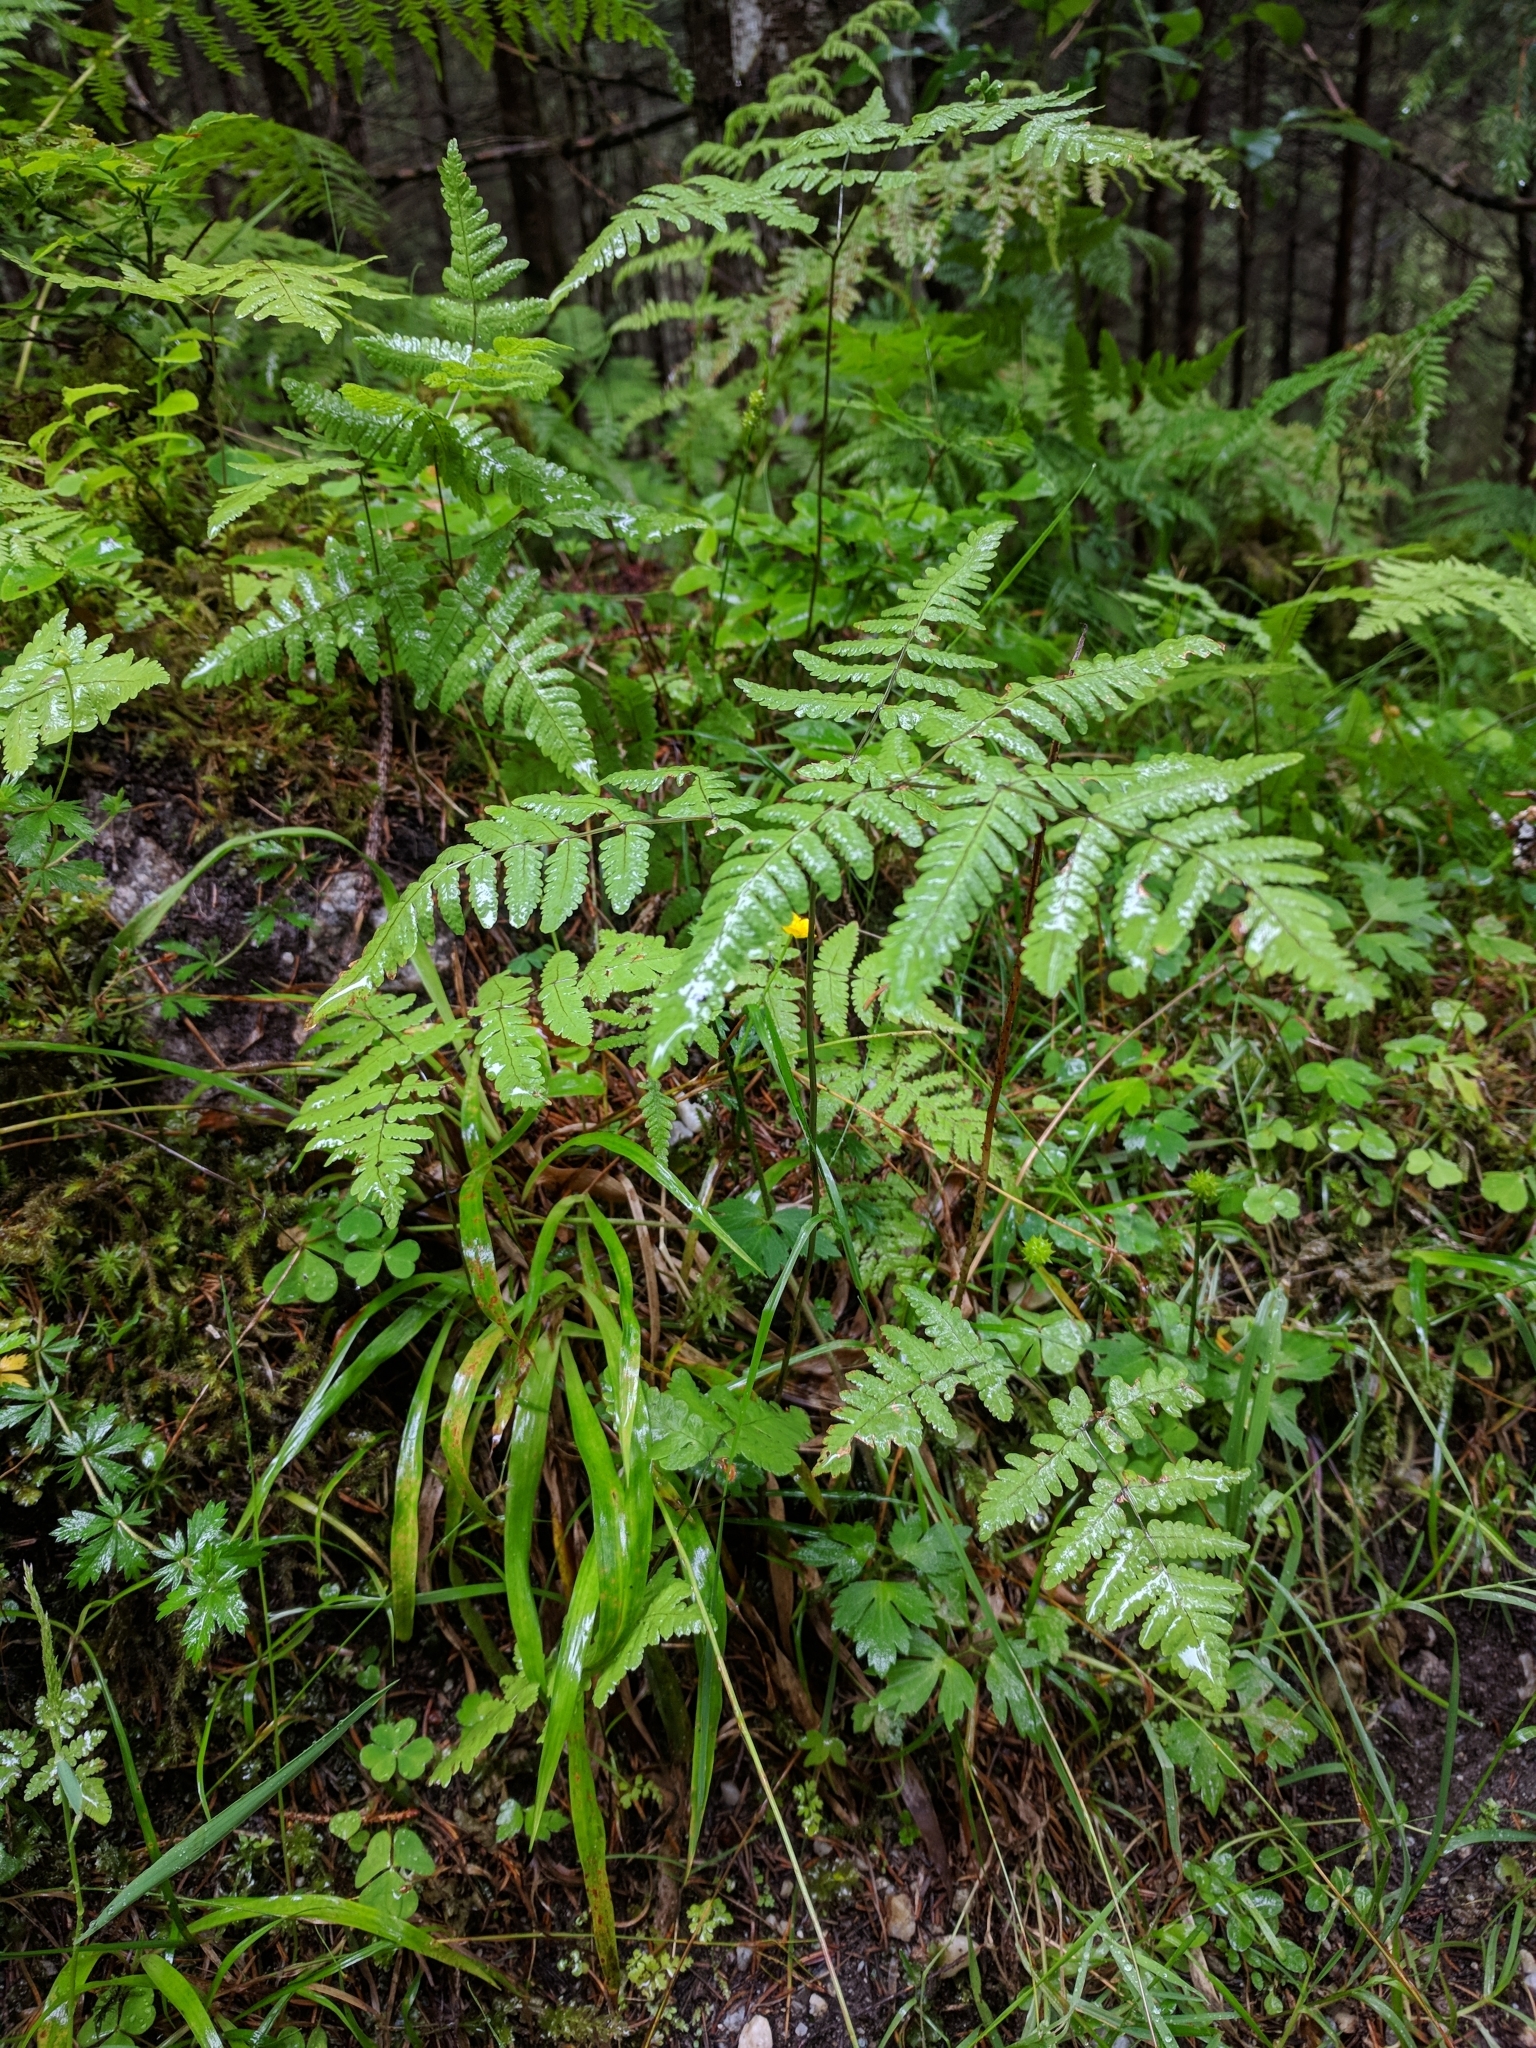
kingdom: Plantae
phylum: Tracheophyta
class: Polypodiopsida
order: Polypodiales
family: Cystopteridaceae
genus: Gymnocarpium
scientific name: Gymnocarpium dryopteris
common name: Oak fern
